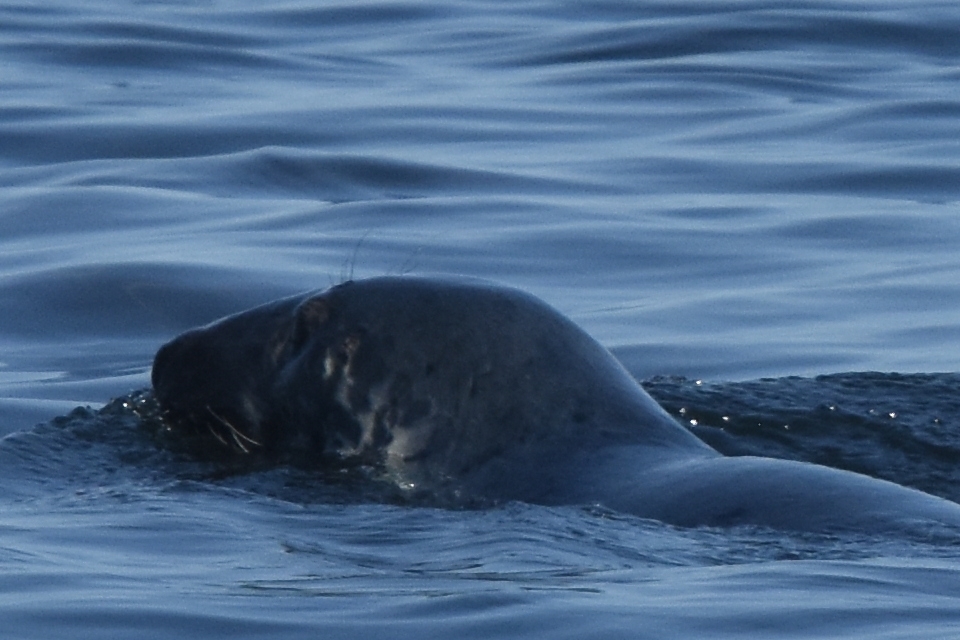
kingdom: Animalia
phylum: Chordata
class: Mammalia
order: Carnivora
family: Phocidae
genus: Halichoerus
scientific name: Halichoerus grypus
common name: Grey seal
